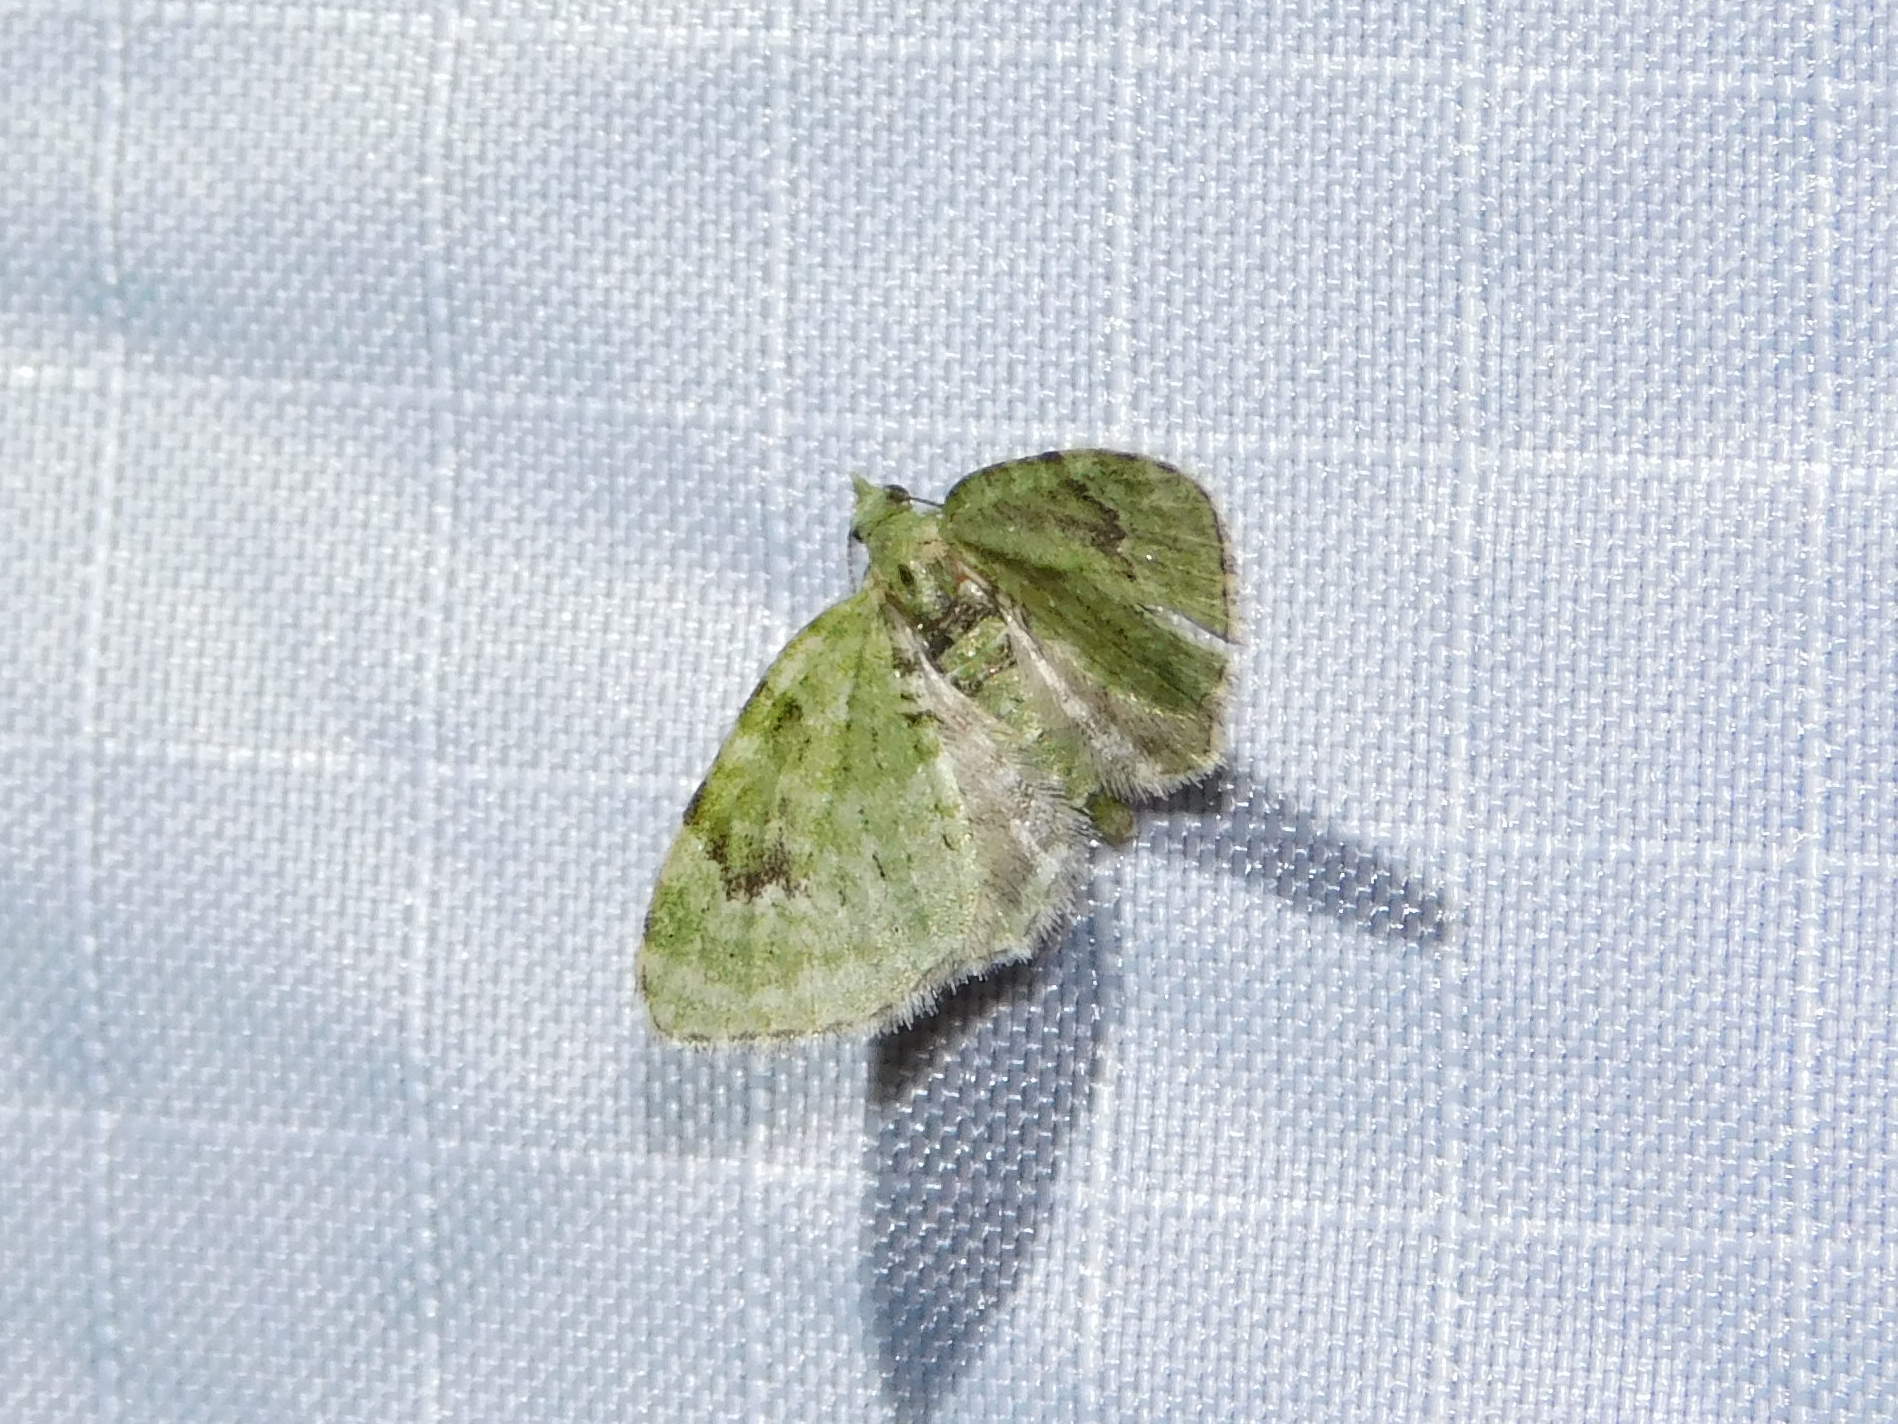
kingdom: Animalia
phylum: Arthropoda
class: Insecta
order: Lepidoptera
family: Geometridae
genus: Chloroclystis
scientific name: Chloroclystis v-ata
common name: V-pug
